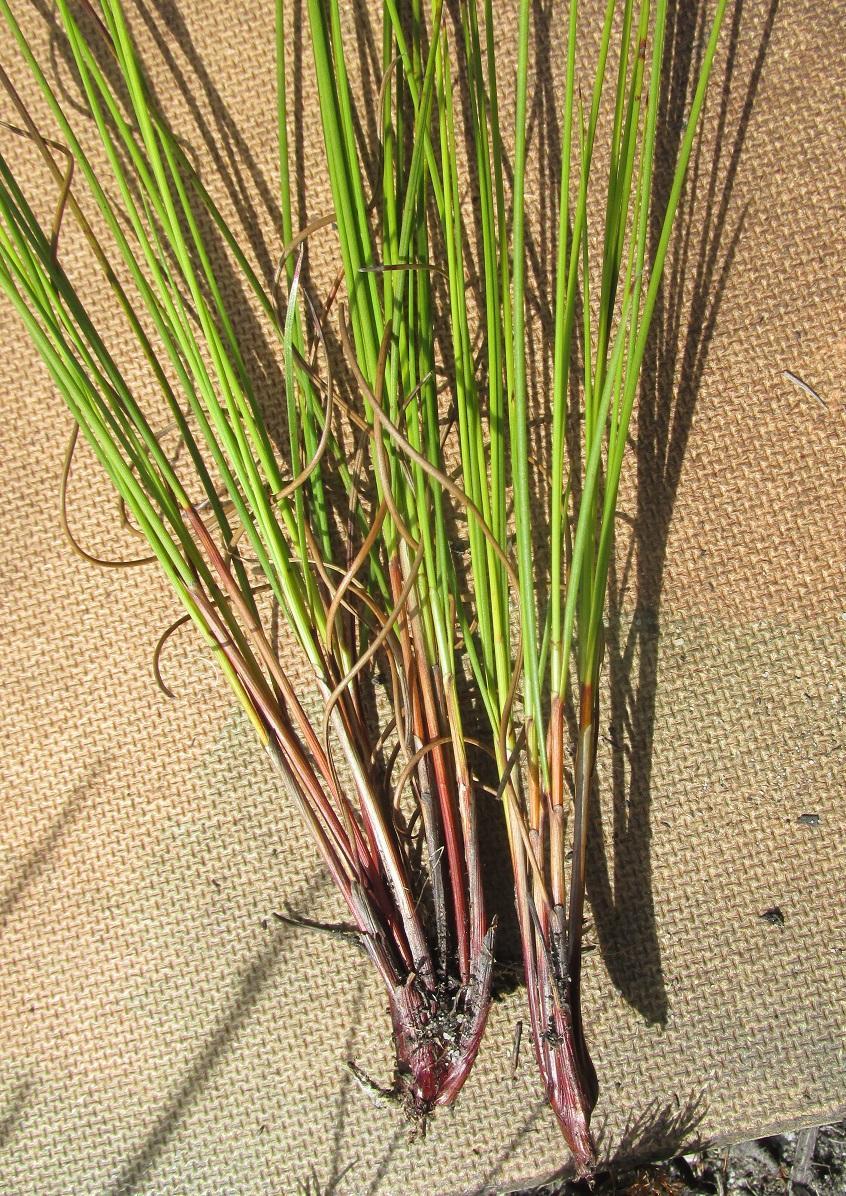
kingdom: Plantae
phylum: Tracheophyta
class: Liliopsida
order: Poales
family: Cyperaceae
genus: Schoenus
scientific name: Schoenus compactus
